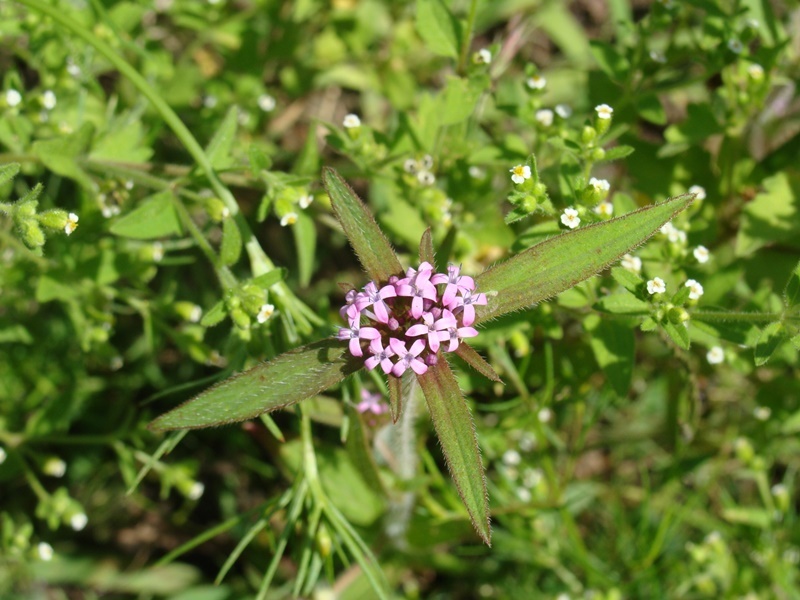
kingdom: Plantae
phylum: Tracheophyta
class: Magnoliopsida
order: Gentianales
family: Rubiaceae
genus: Crusea
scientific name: Crusea hispida
